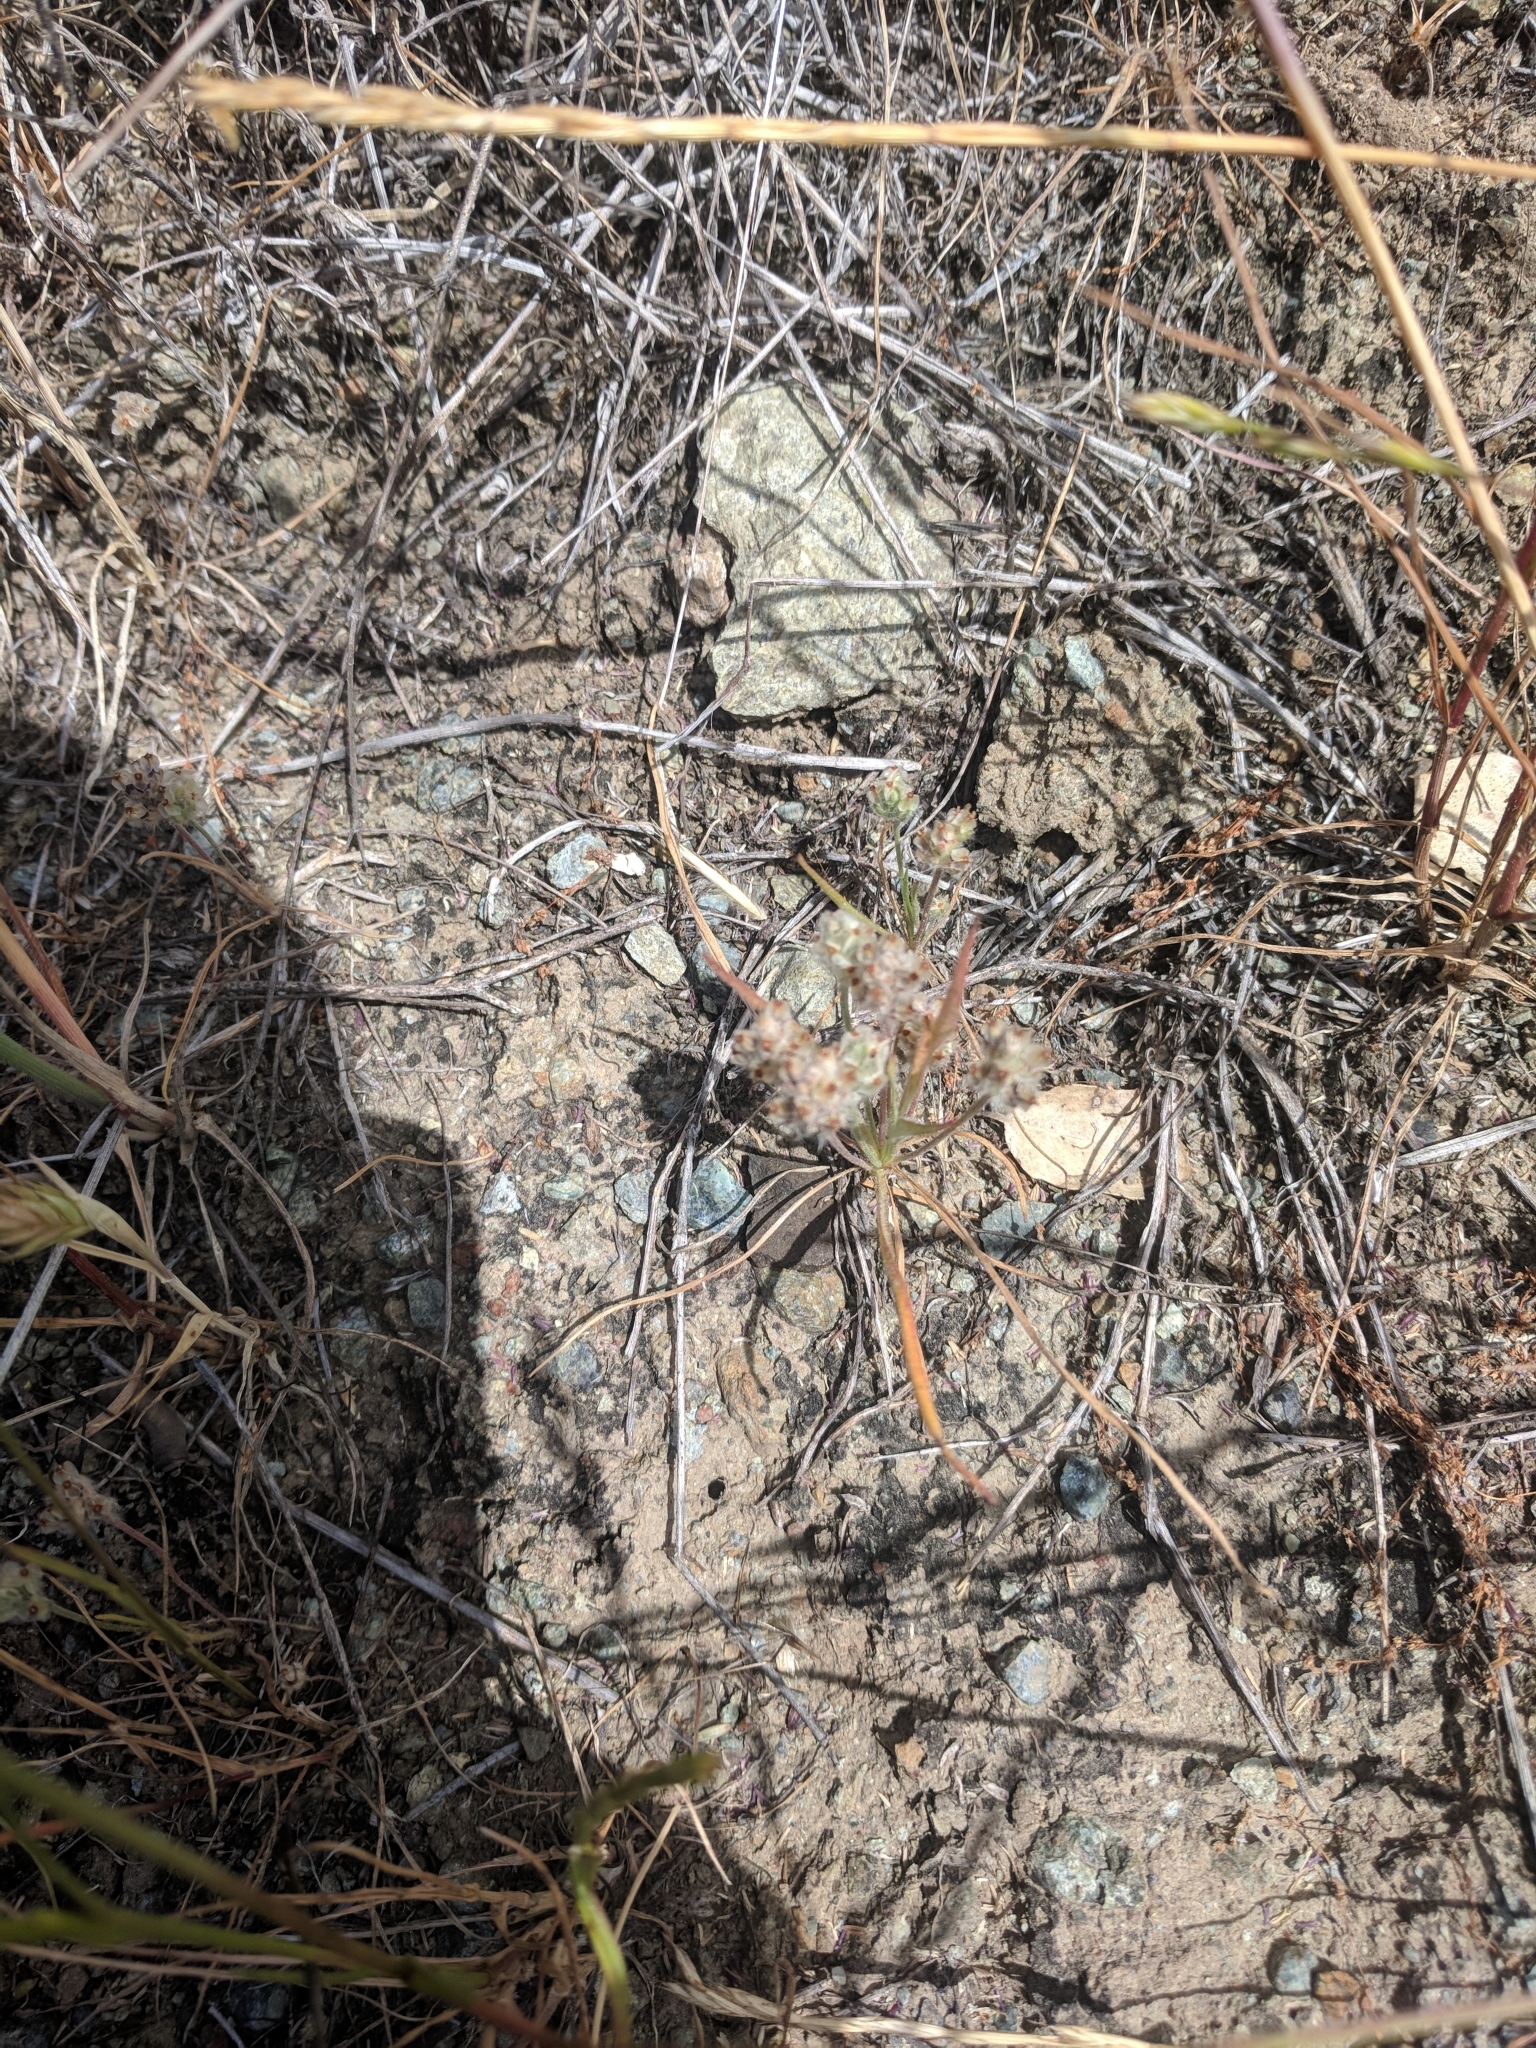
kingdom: Plantae
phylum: Tracheophyta
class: Magnoliopsida
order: Lamiales
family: Plantaginaceae
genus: Plantago
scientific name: Plantago erecta
